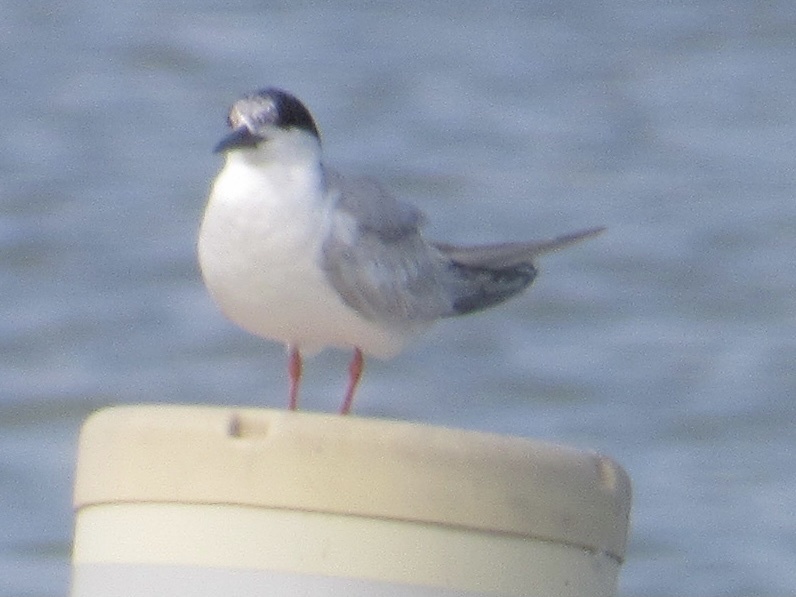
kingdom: Animalia
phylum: Chordata
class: Aves
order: Charadriiformes
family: Laridae
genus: Sterna
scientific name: Sterna forsteri
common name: Forster's tern
